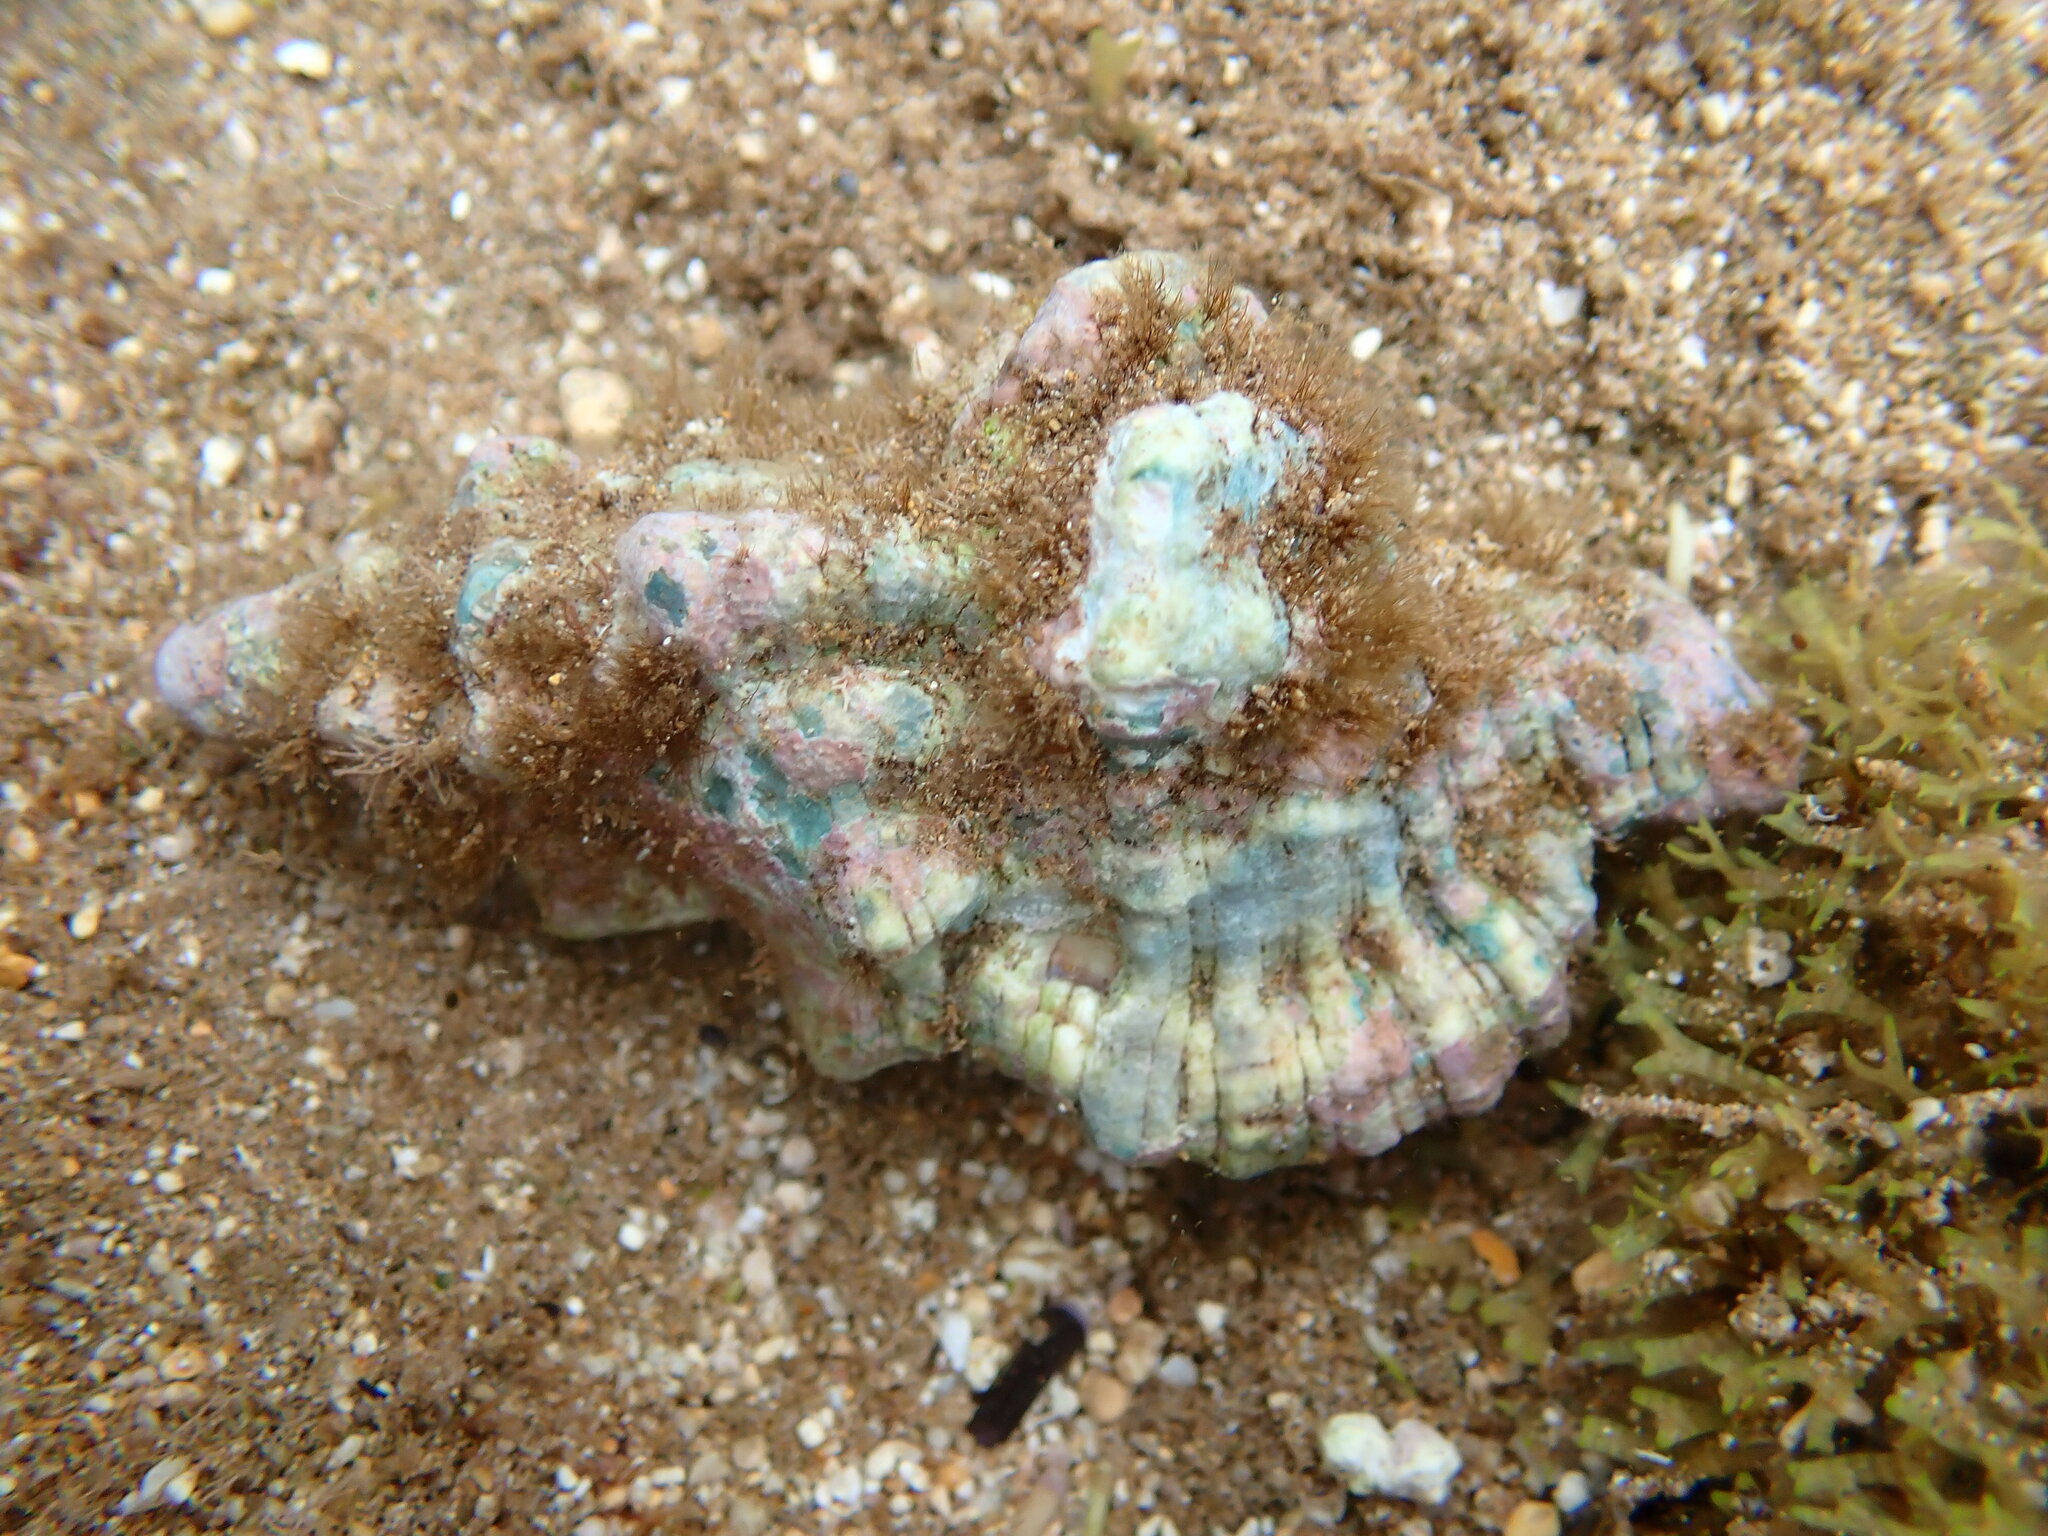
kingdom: Animalia
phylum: Mollusca
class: Gastropoda
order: Littorinimorpha
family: Cymatiidae
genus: Monoplex
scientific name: Monoplex nicobaricus
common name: Goldmouth triton
